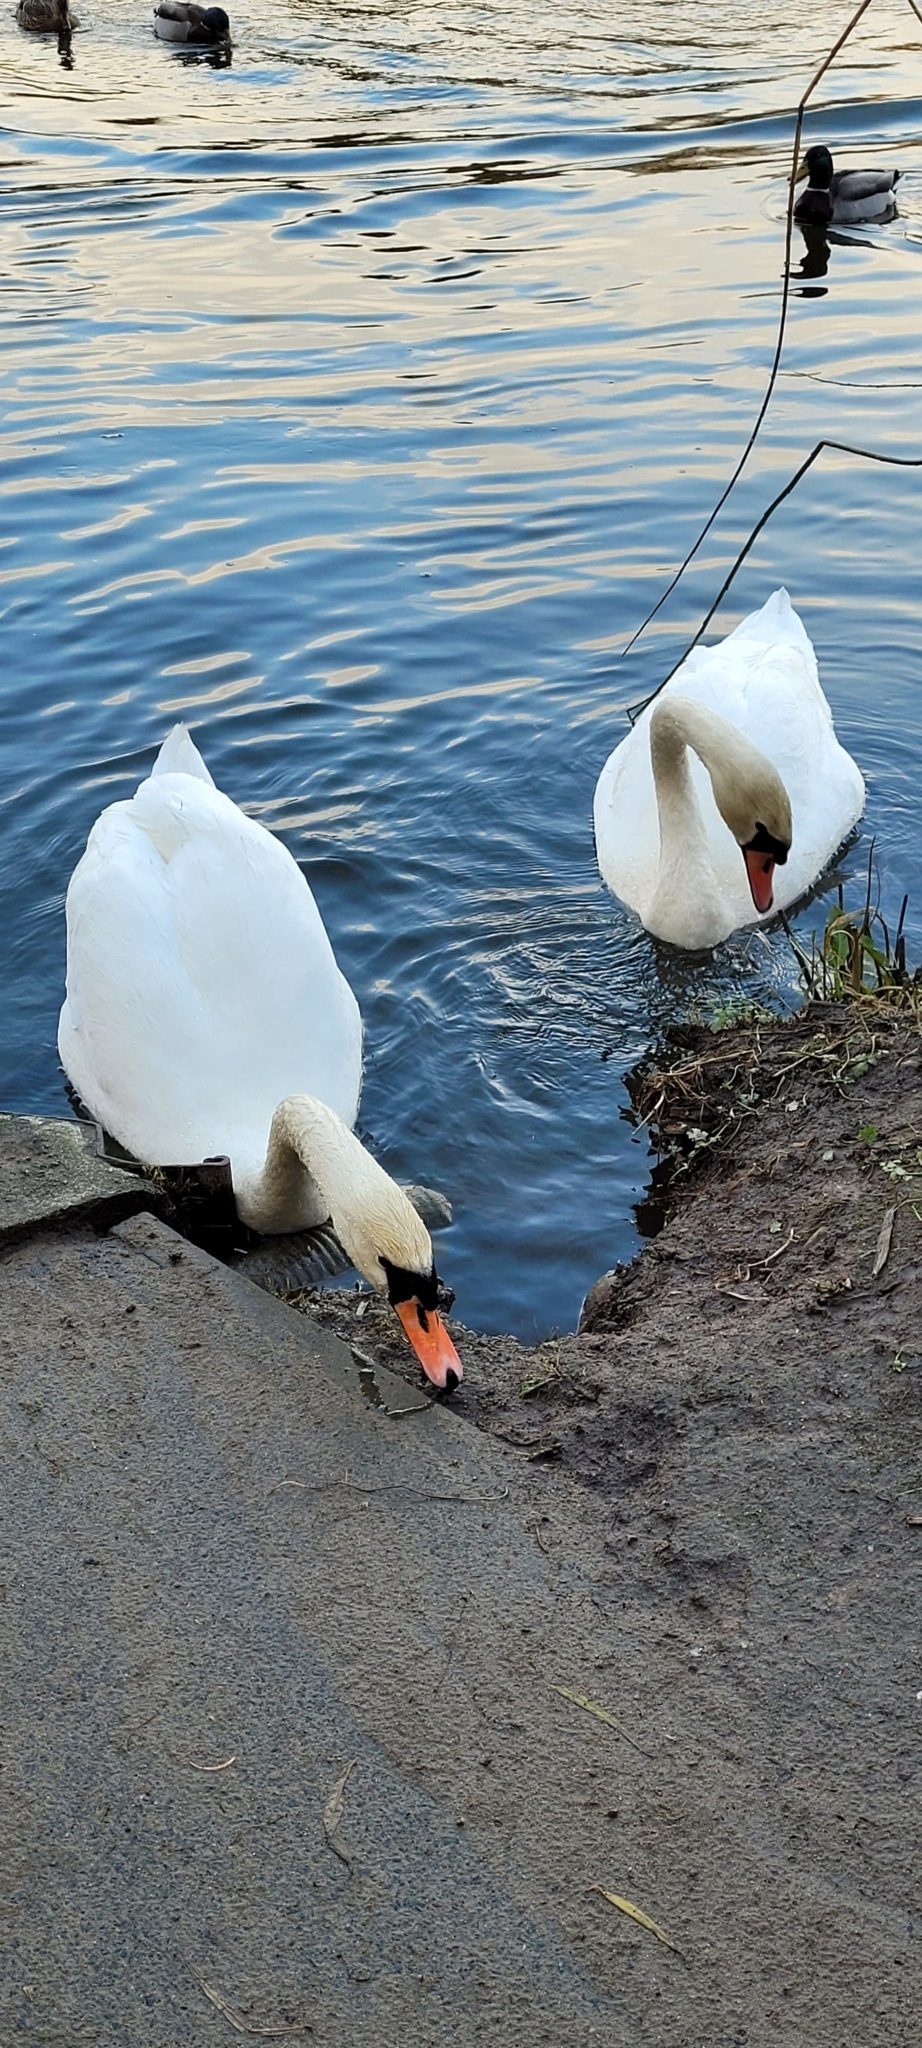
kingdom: Animalia
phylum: Chordata
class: Aves
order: Anseriformes
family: Anatidae
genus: Cygnus
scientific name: Cygnus olor
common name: Mute swan
